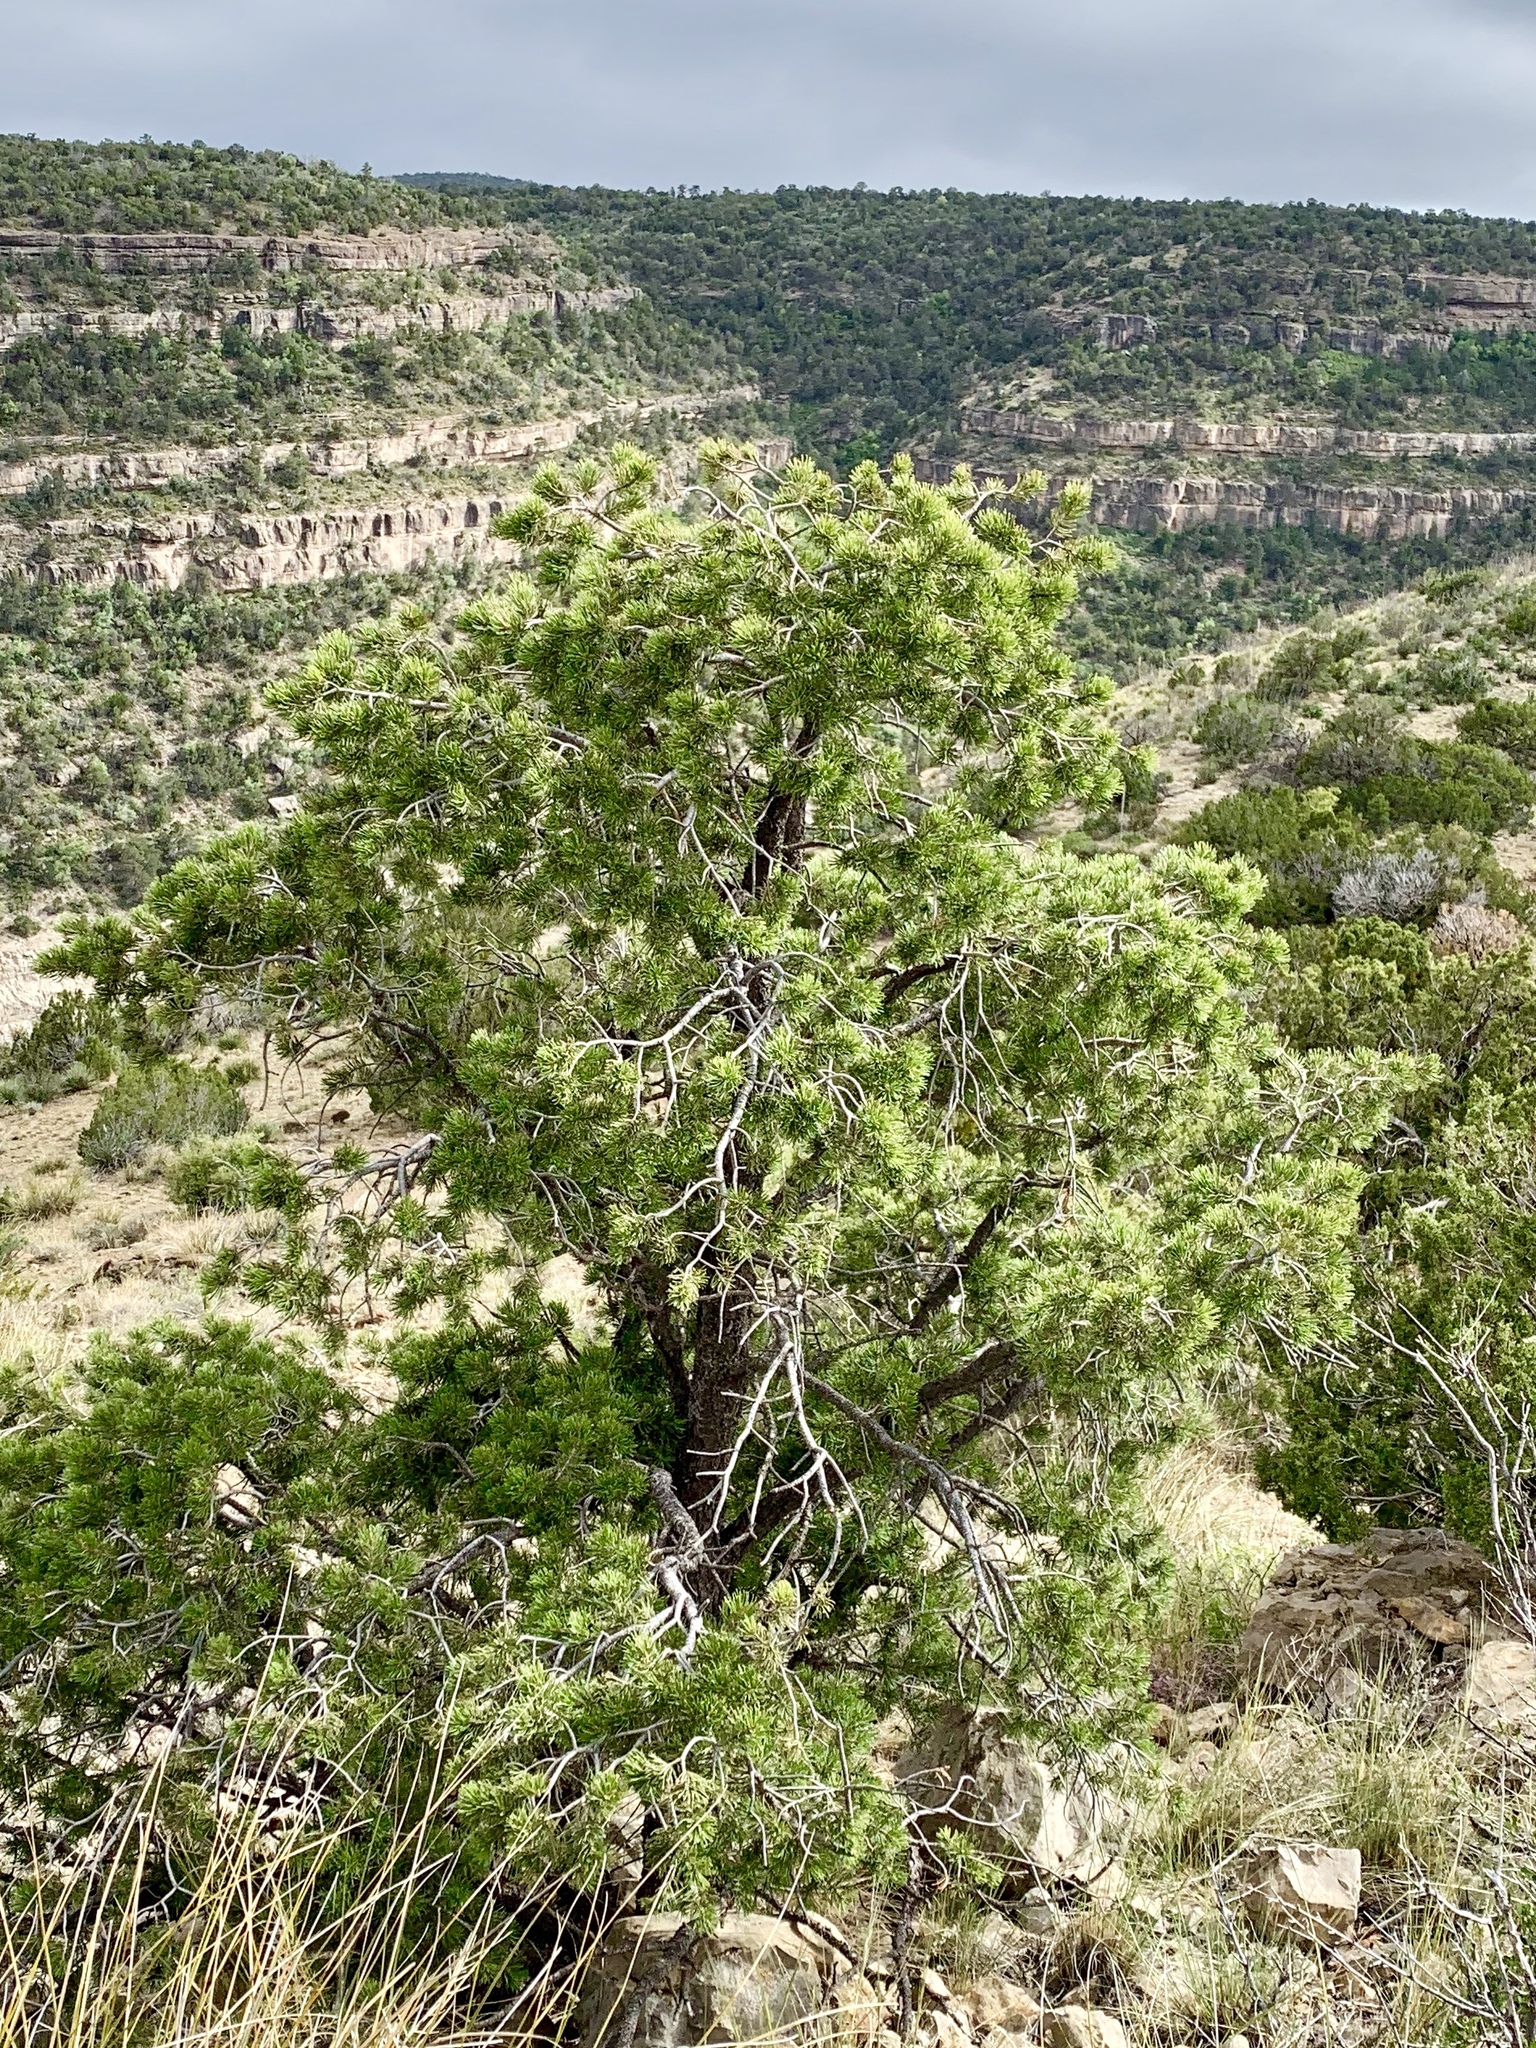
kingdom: Plantae
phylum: Tracheophyta
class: Pinopsida
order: Pinales
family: Pinaceae
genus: Pinus
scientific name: Pinus edulis
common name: Colorado pinyon
